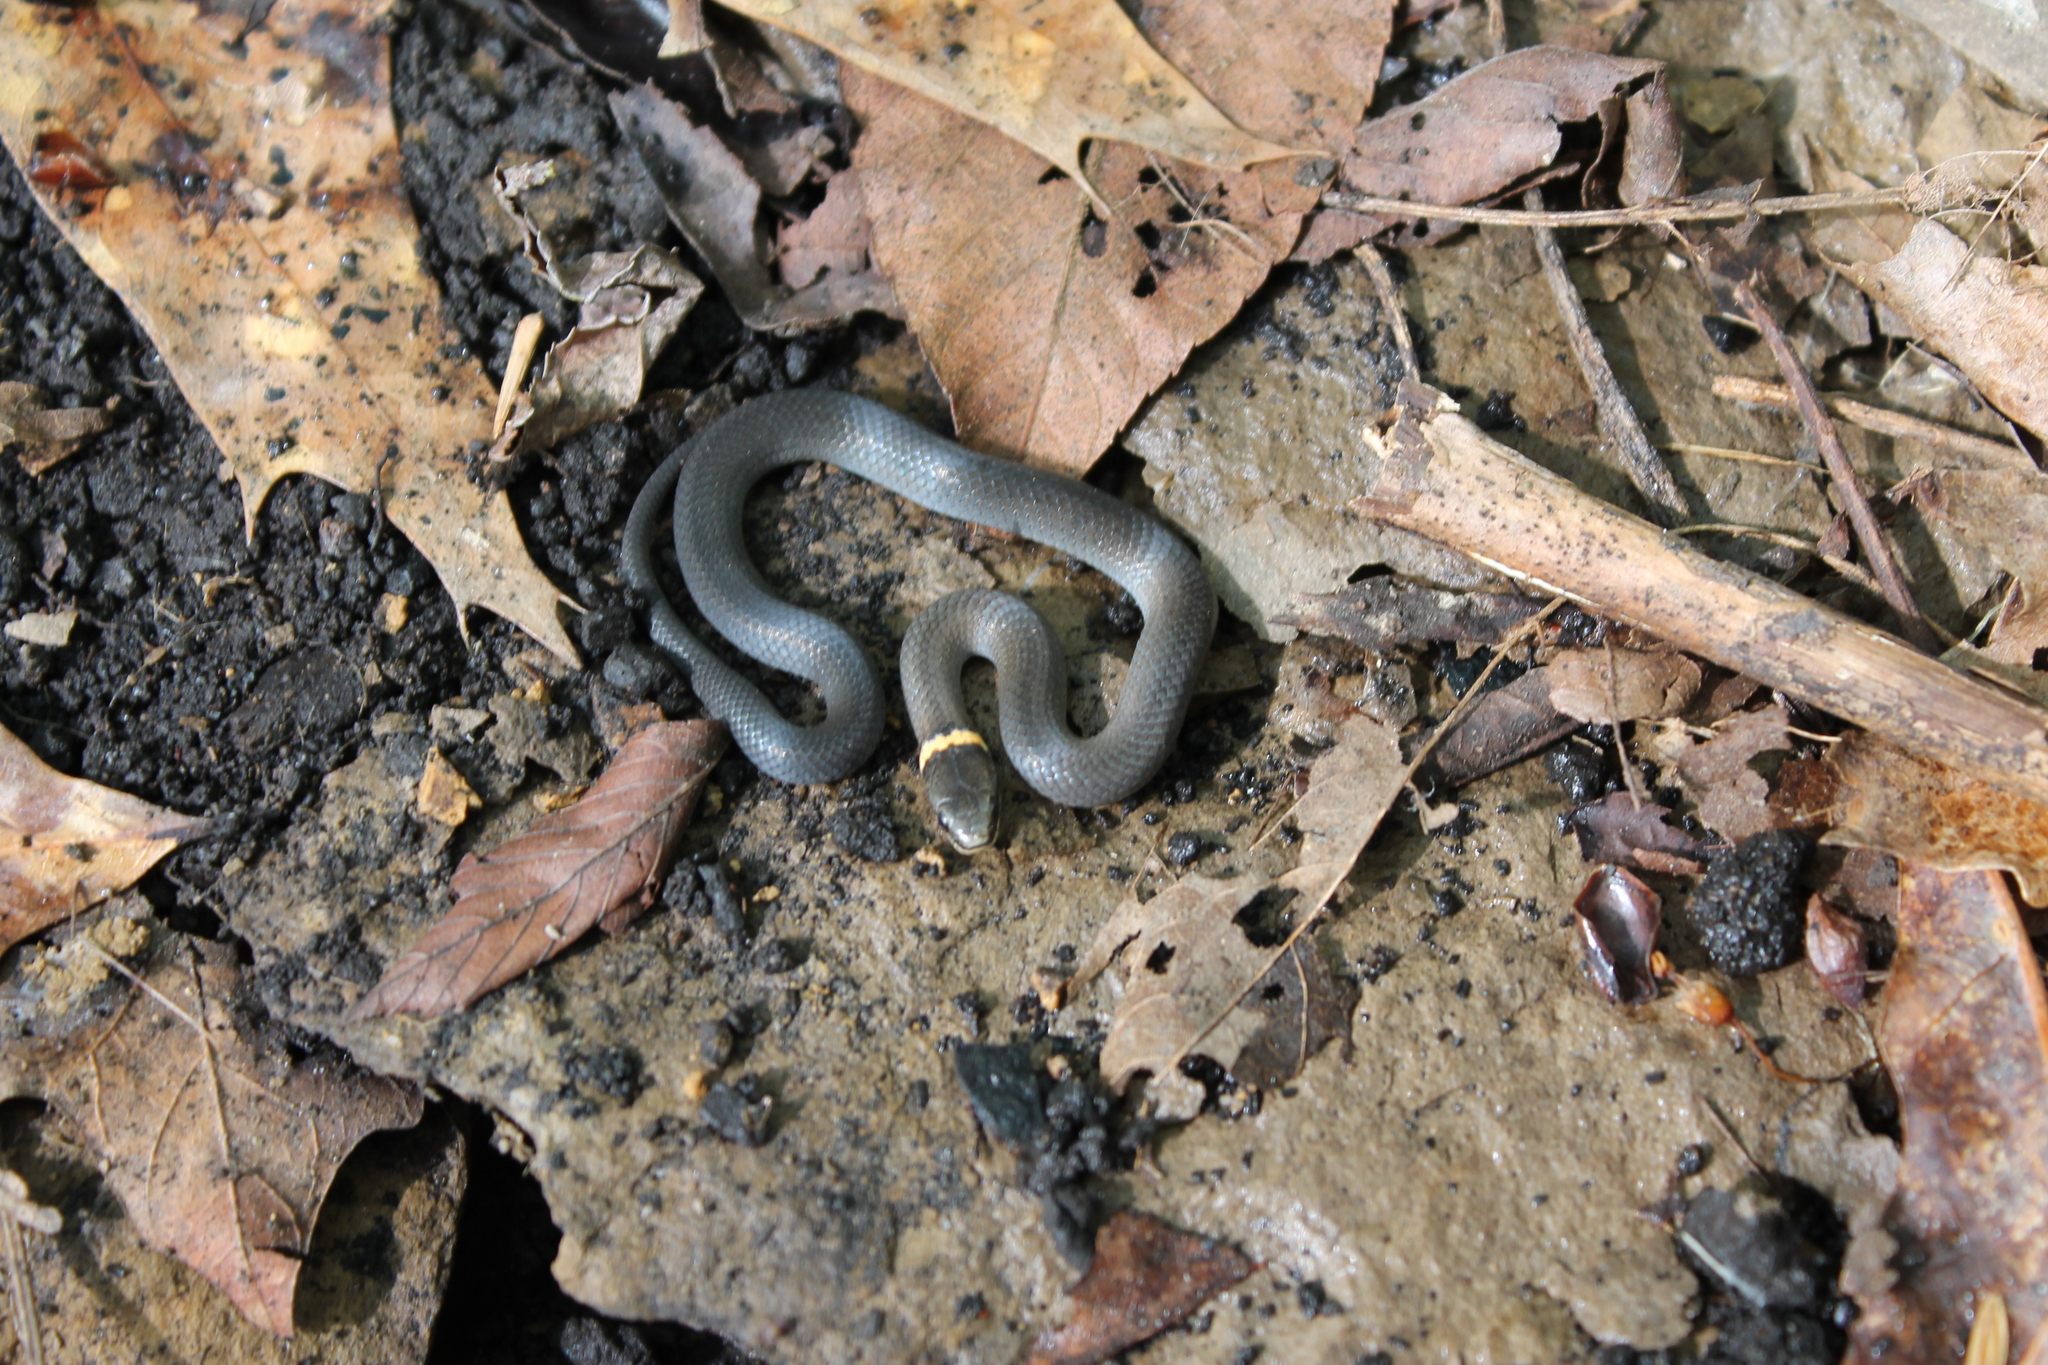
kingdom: Animalia
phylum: Chordata
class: Squamata
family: Colubridae
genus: Diadophis
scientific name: Diadophis punctatus
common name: Ringneck snake
